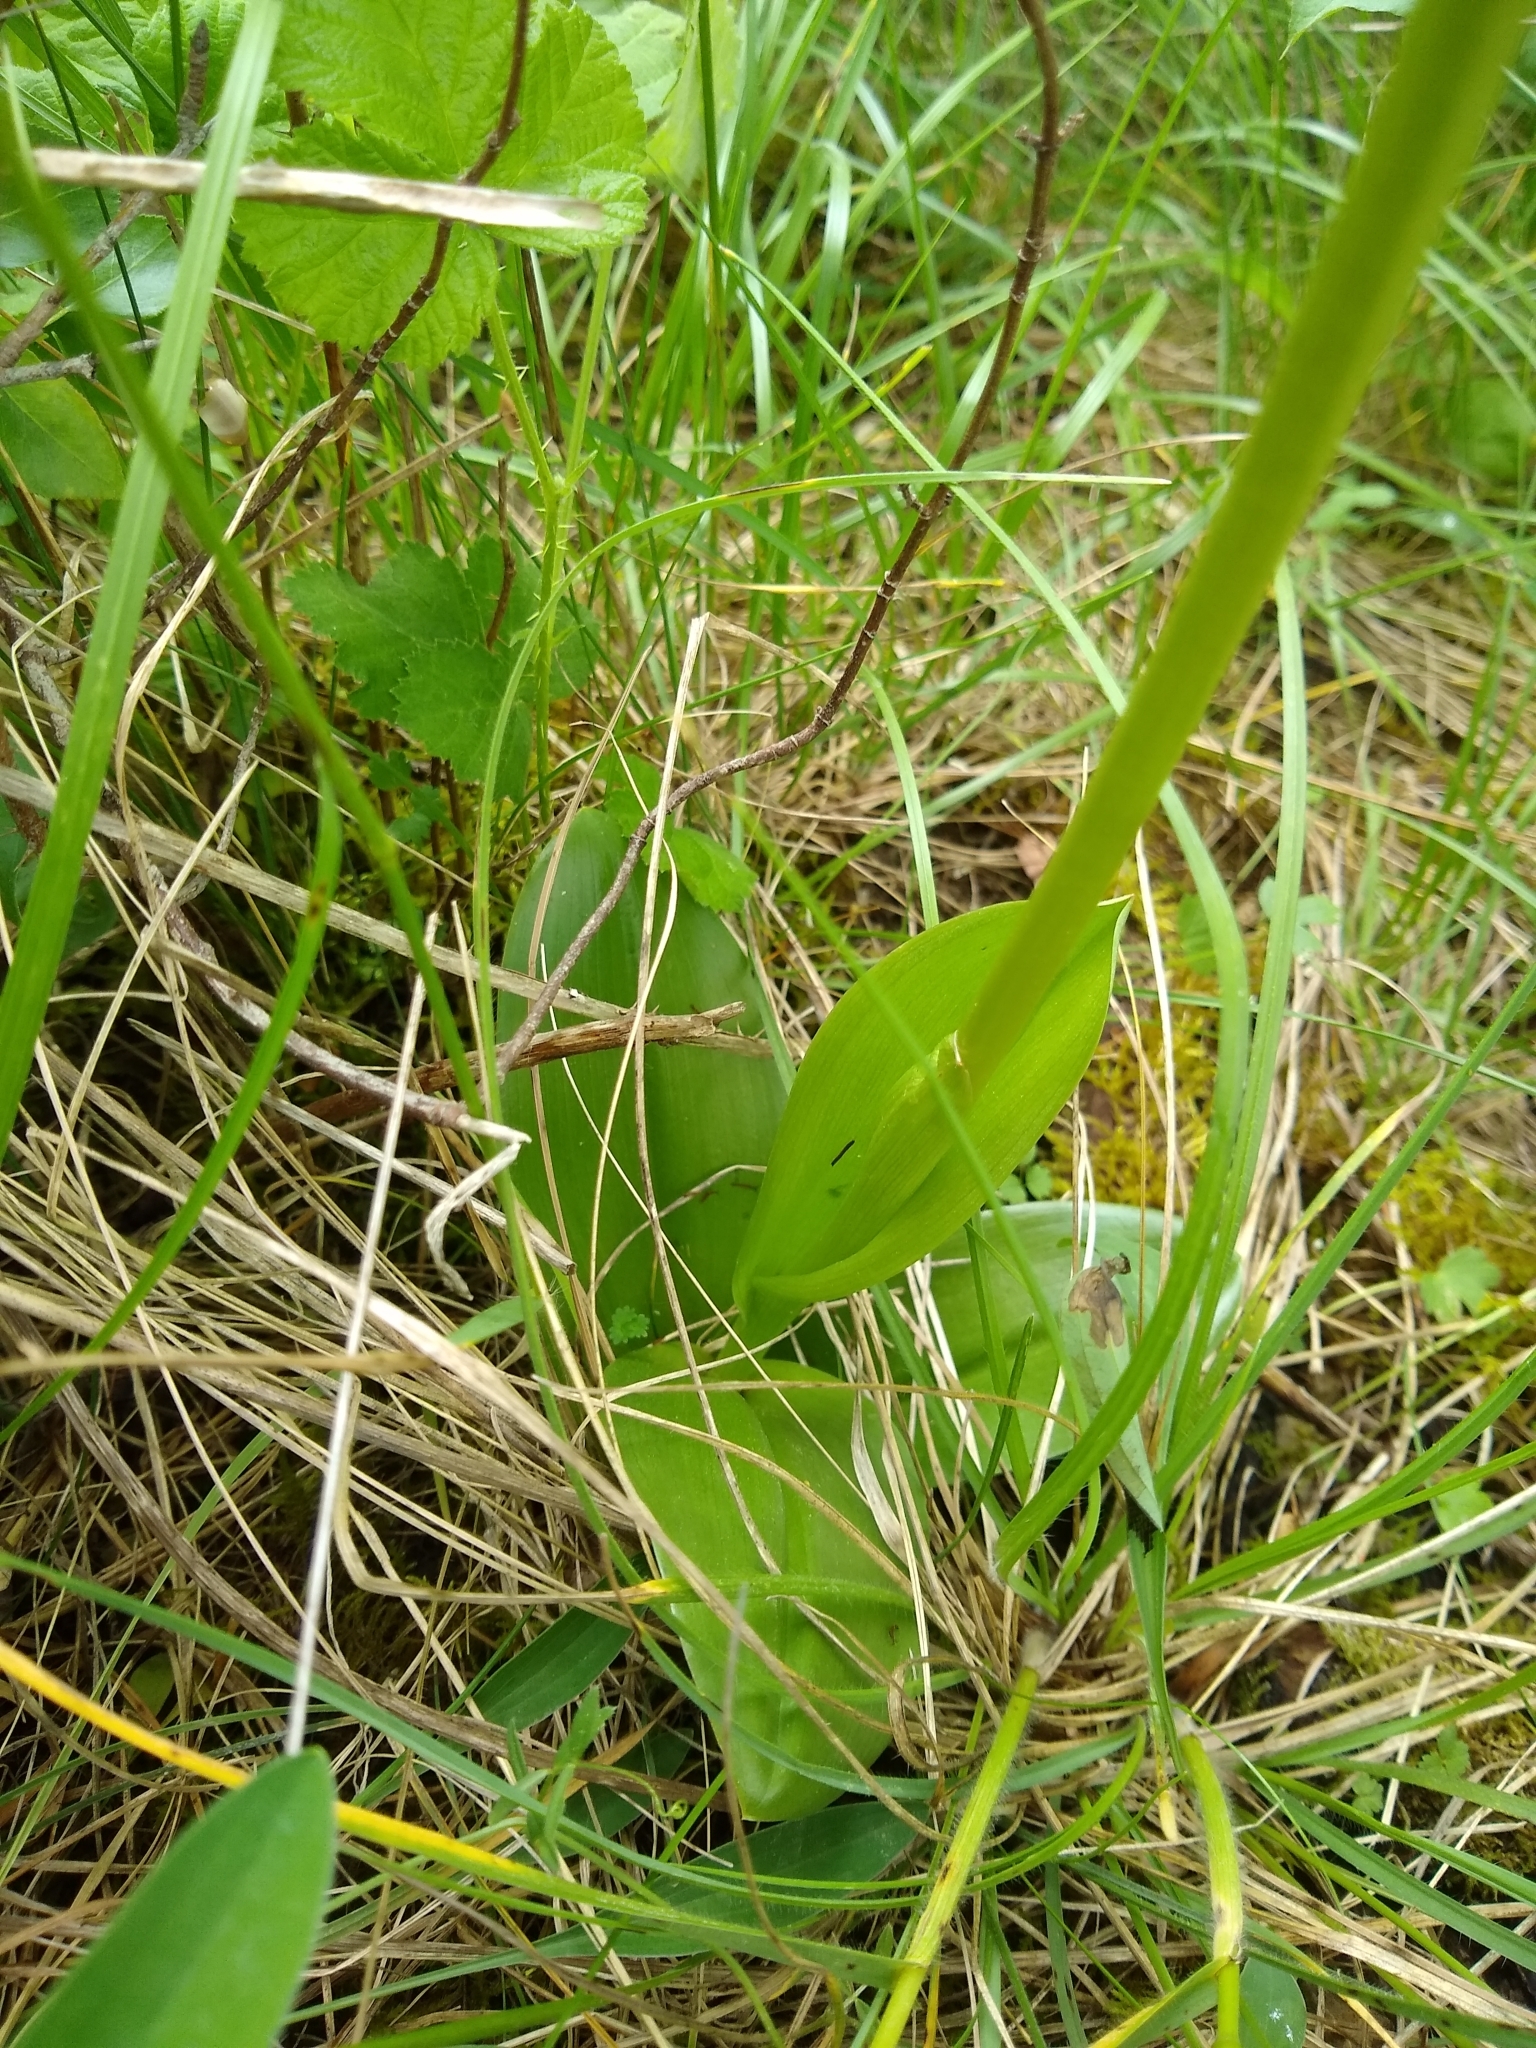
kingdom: Plantae
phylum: Tracheophyta
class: Liliopsida
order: Asparagales
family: Orchidaceae
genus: Orchis
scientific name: Orchis militaris
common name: Military orchid
